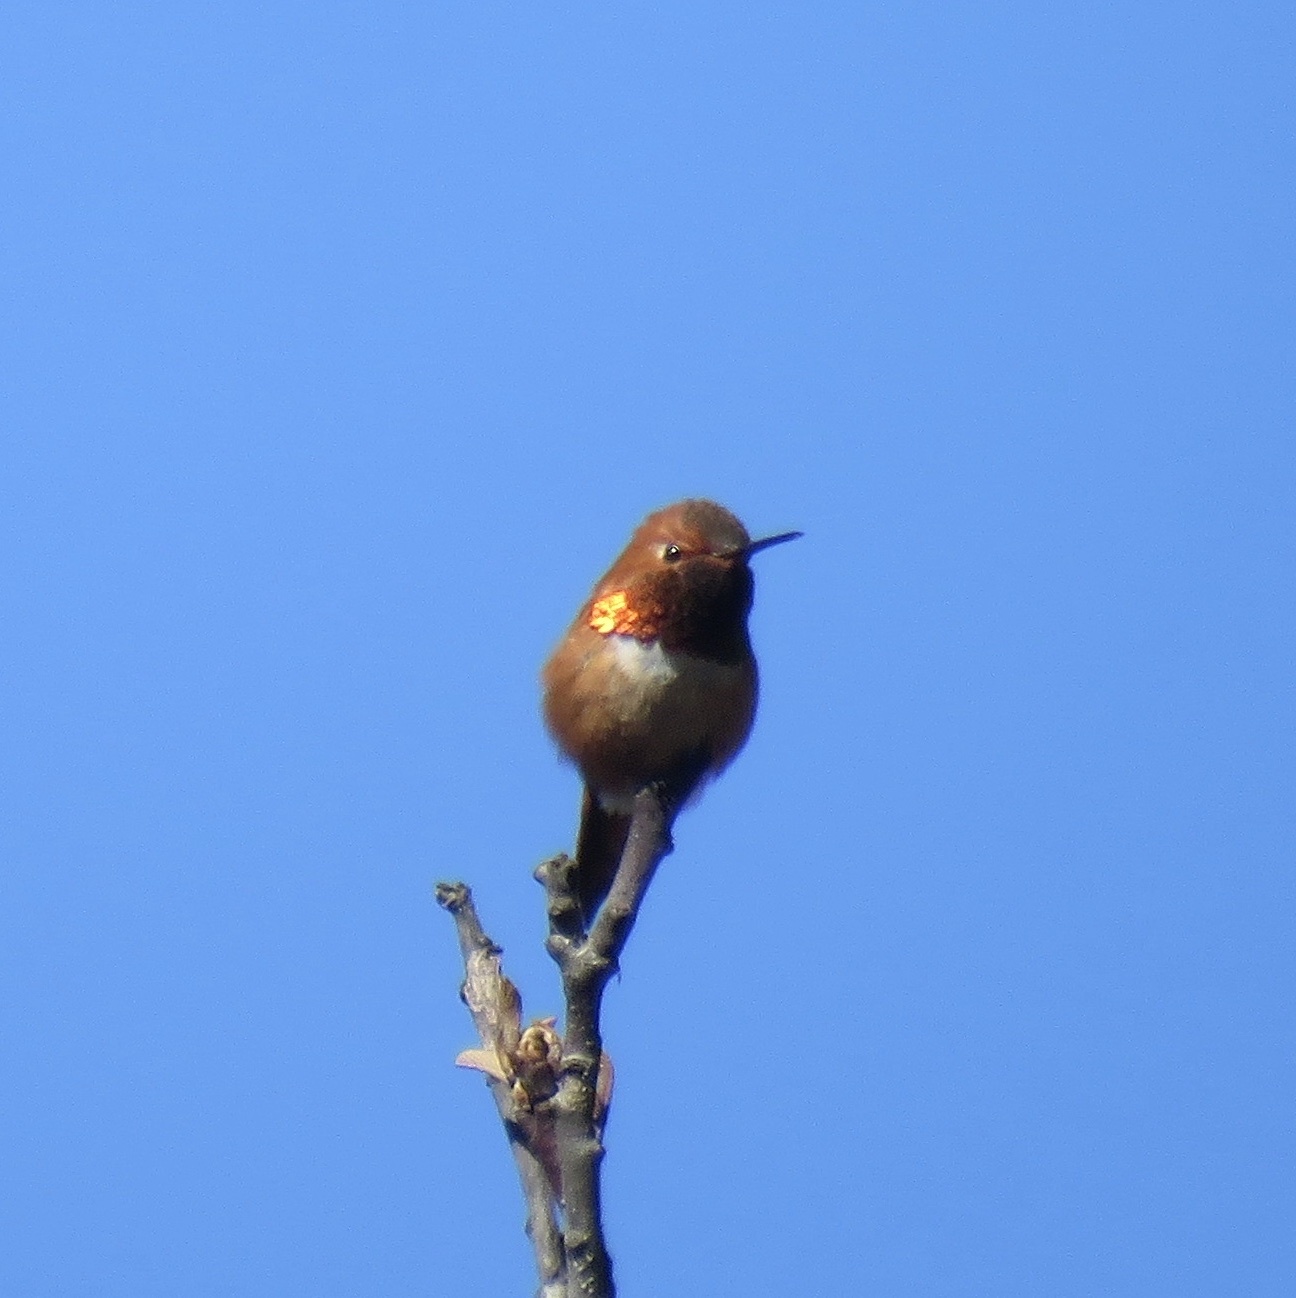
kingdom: Animalia
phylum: Chordata
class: Aves
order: Apodiformes
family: Trochilidae
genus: Selasphorus
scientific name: Selasphorus rufus
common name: Rufous hummingbird
